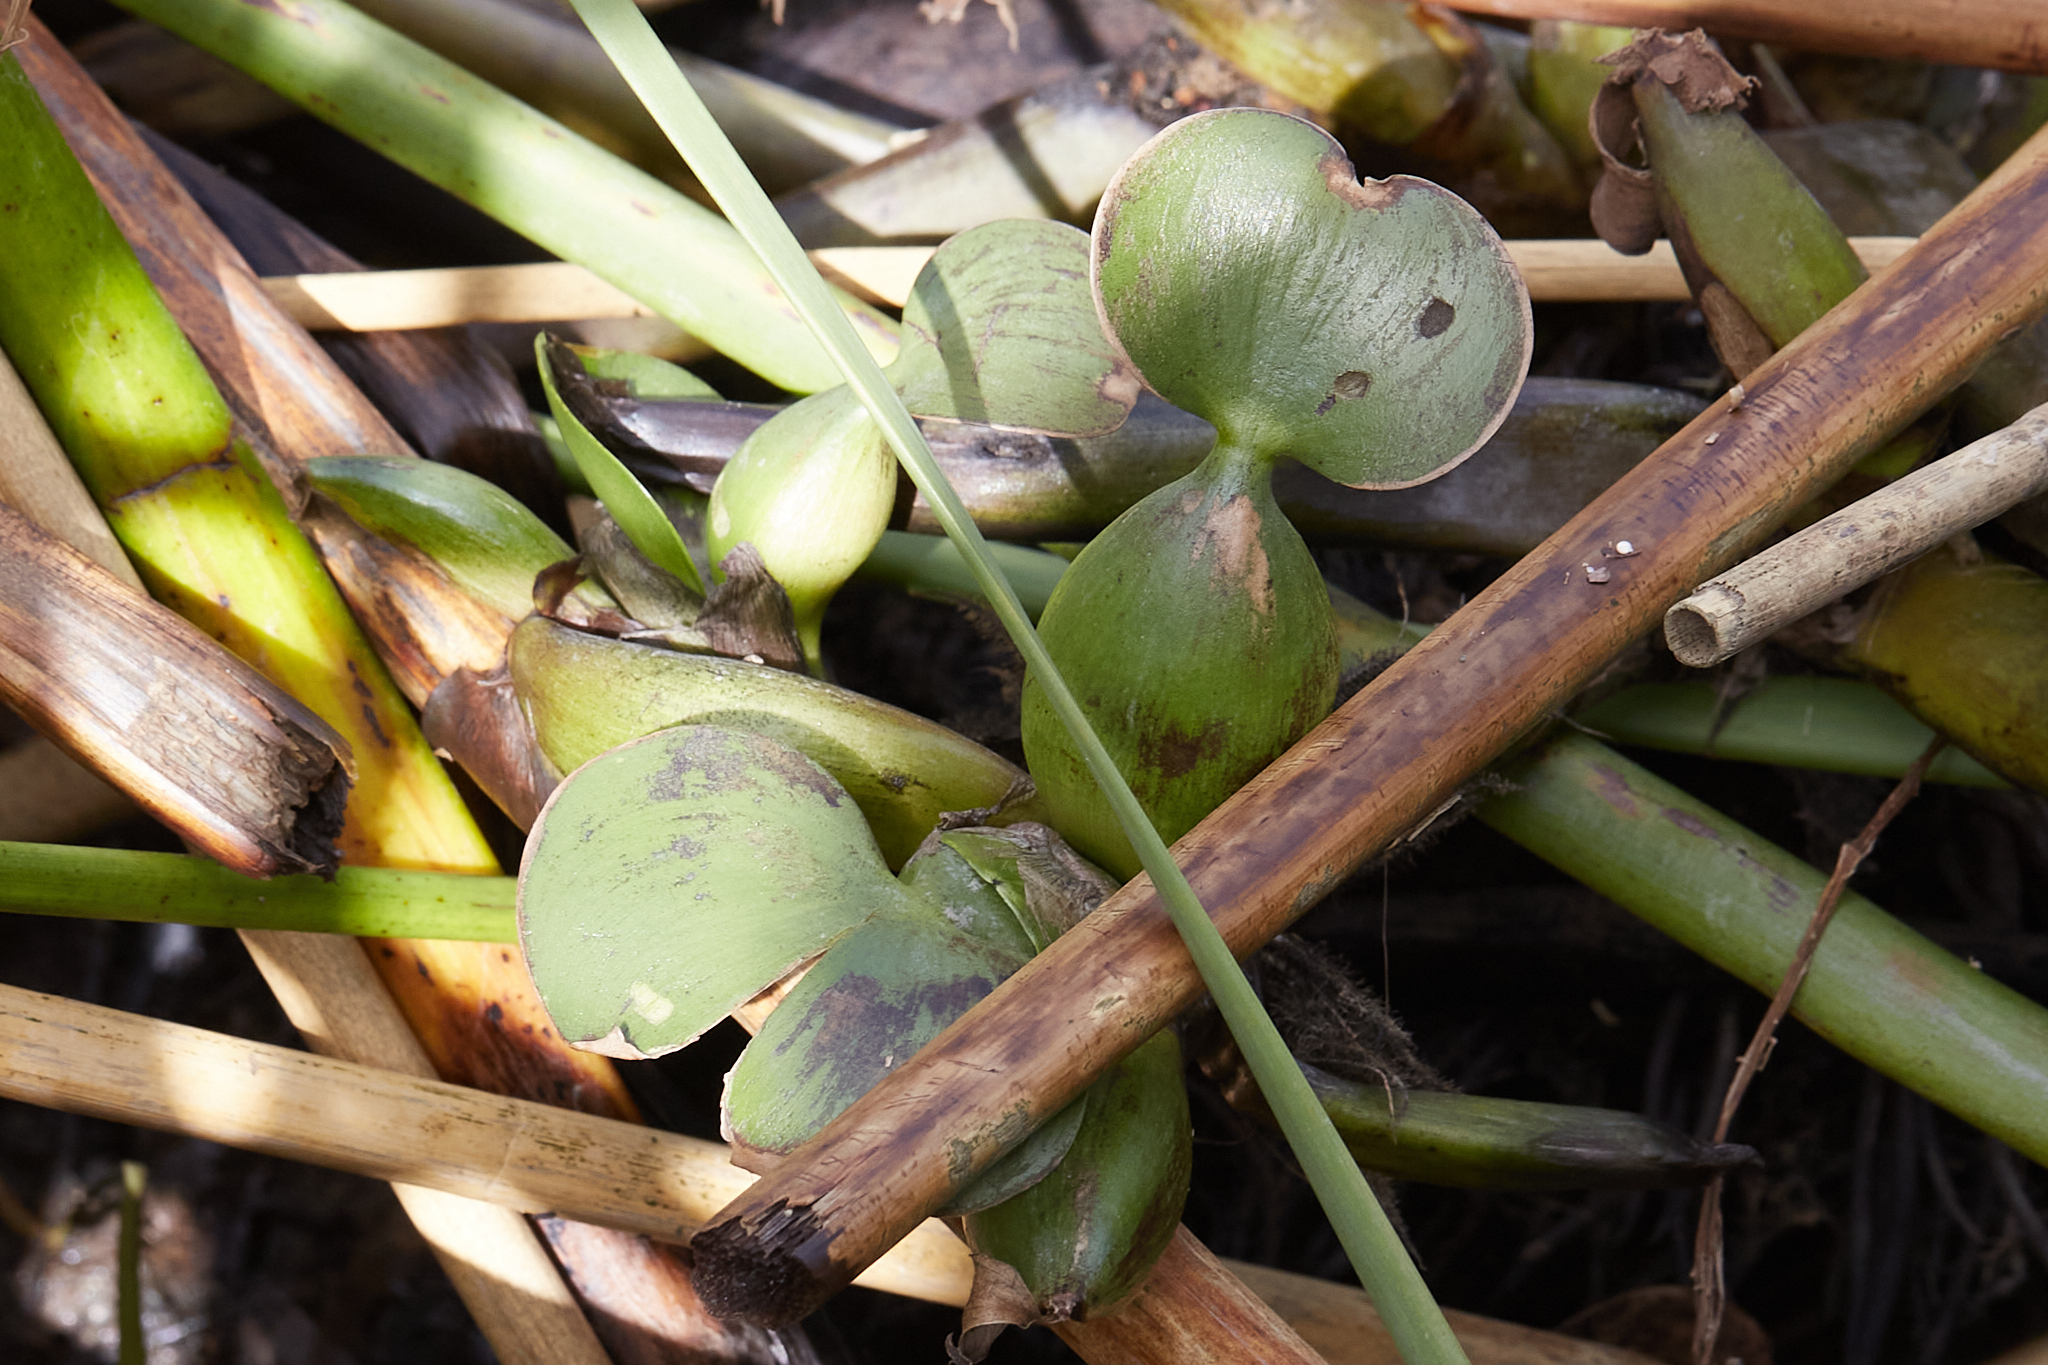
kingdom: Plantae
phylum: Tracheophyta
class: Liliopsida
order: Commelinales
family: Pontederiaceae
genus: Pontederia
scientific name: Pontederia crassipes
